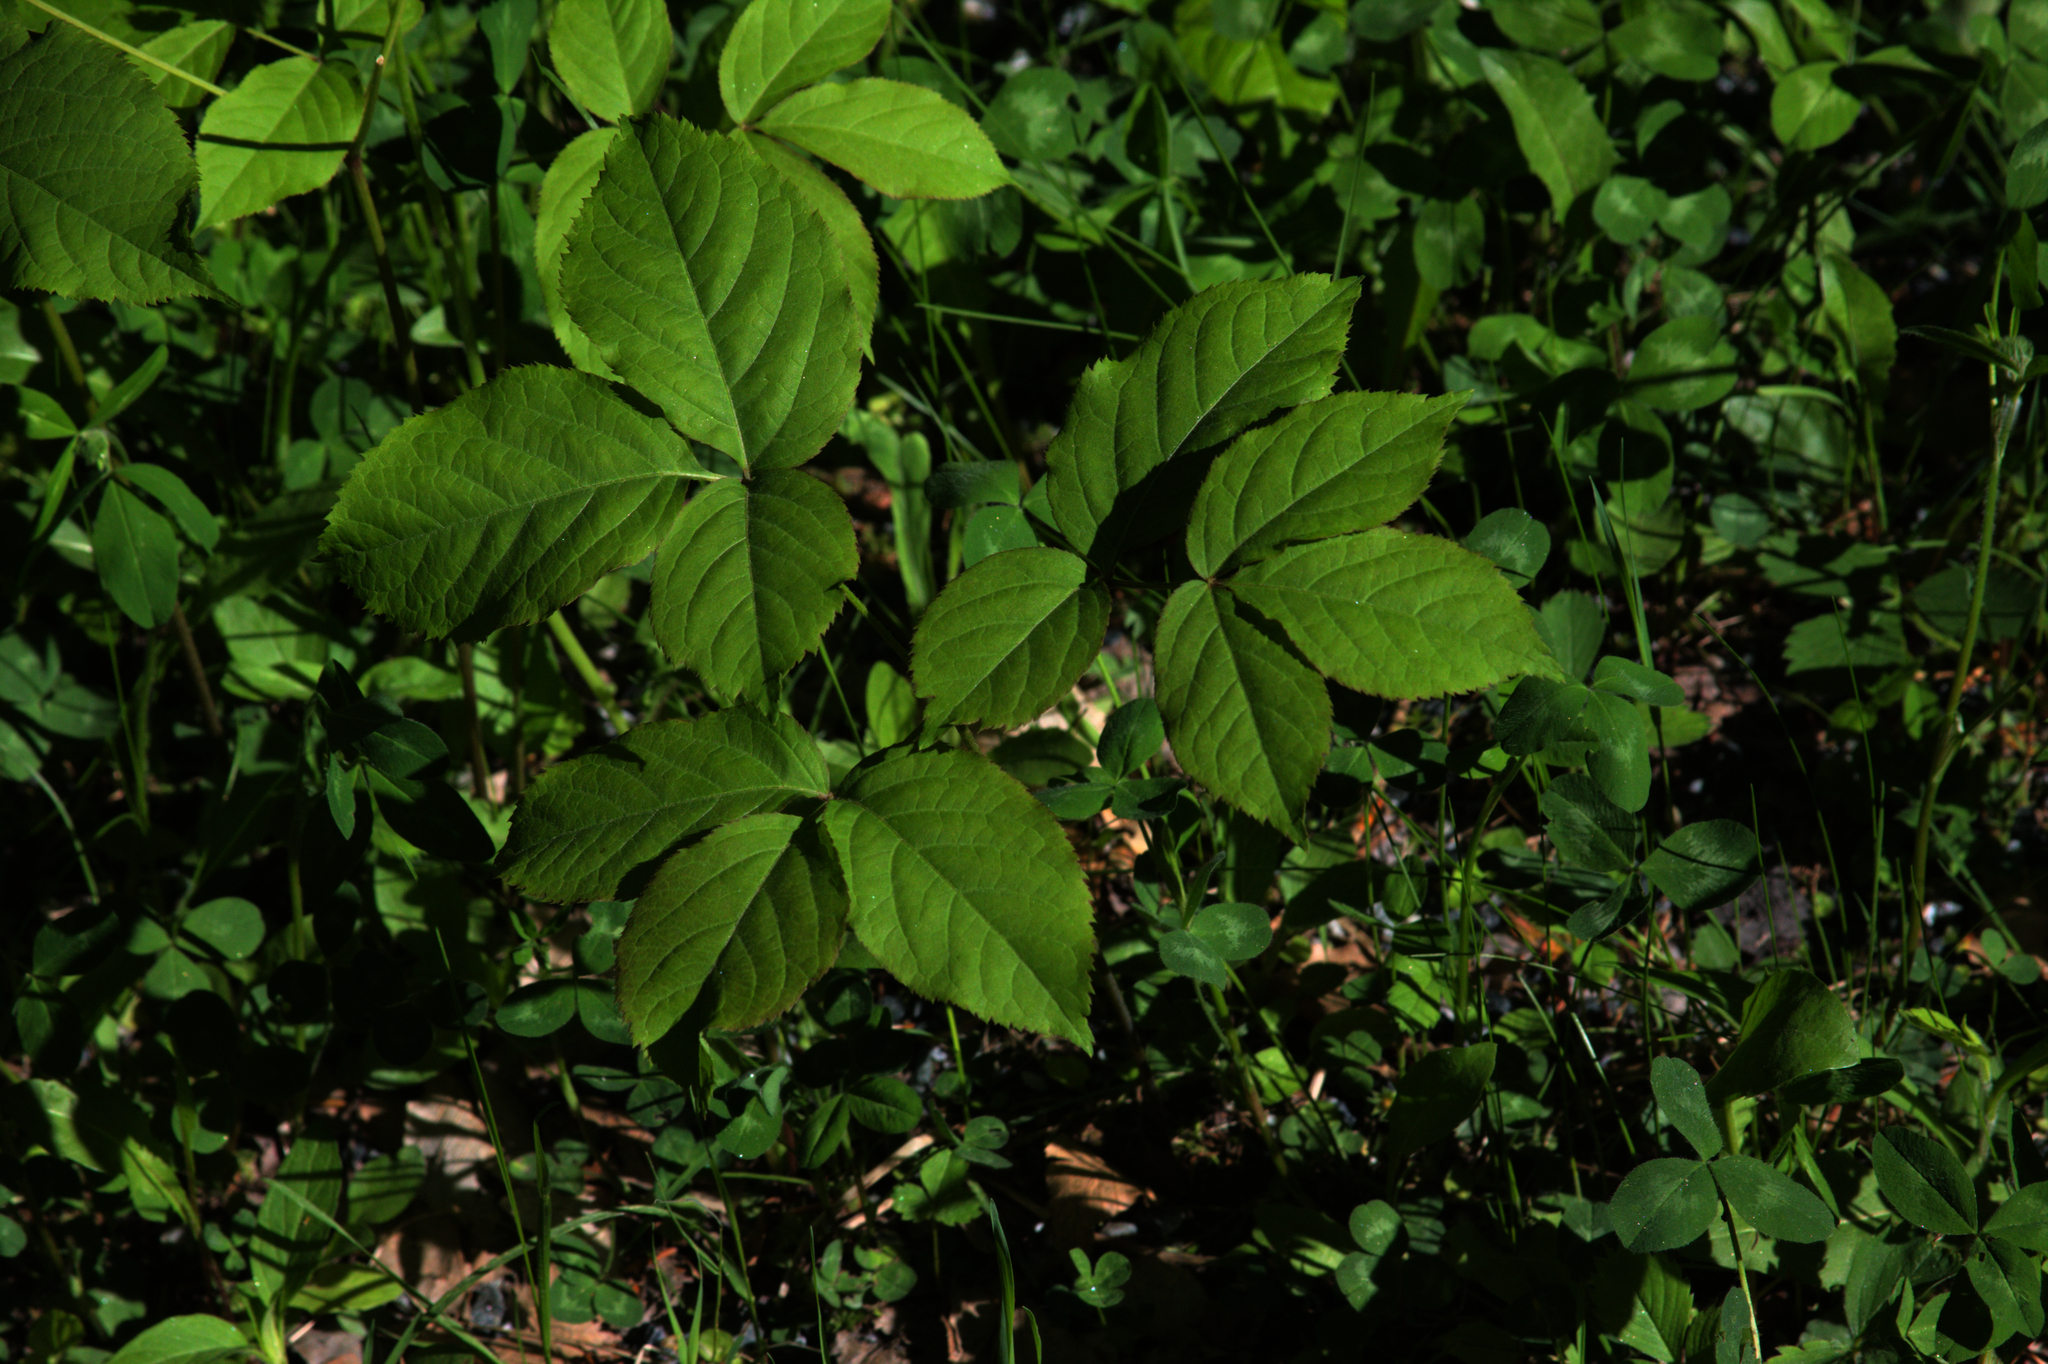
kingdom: Plantae
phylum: Tracheophyta
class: Magnoliopsida
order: Apiales
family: Araliaceae
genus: Aralia
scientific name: Aralia nudicaulis
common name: Wild sarsaparilla
